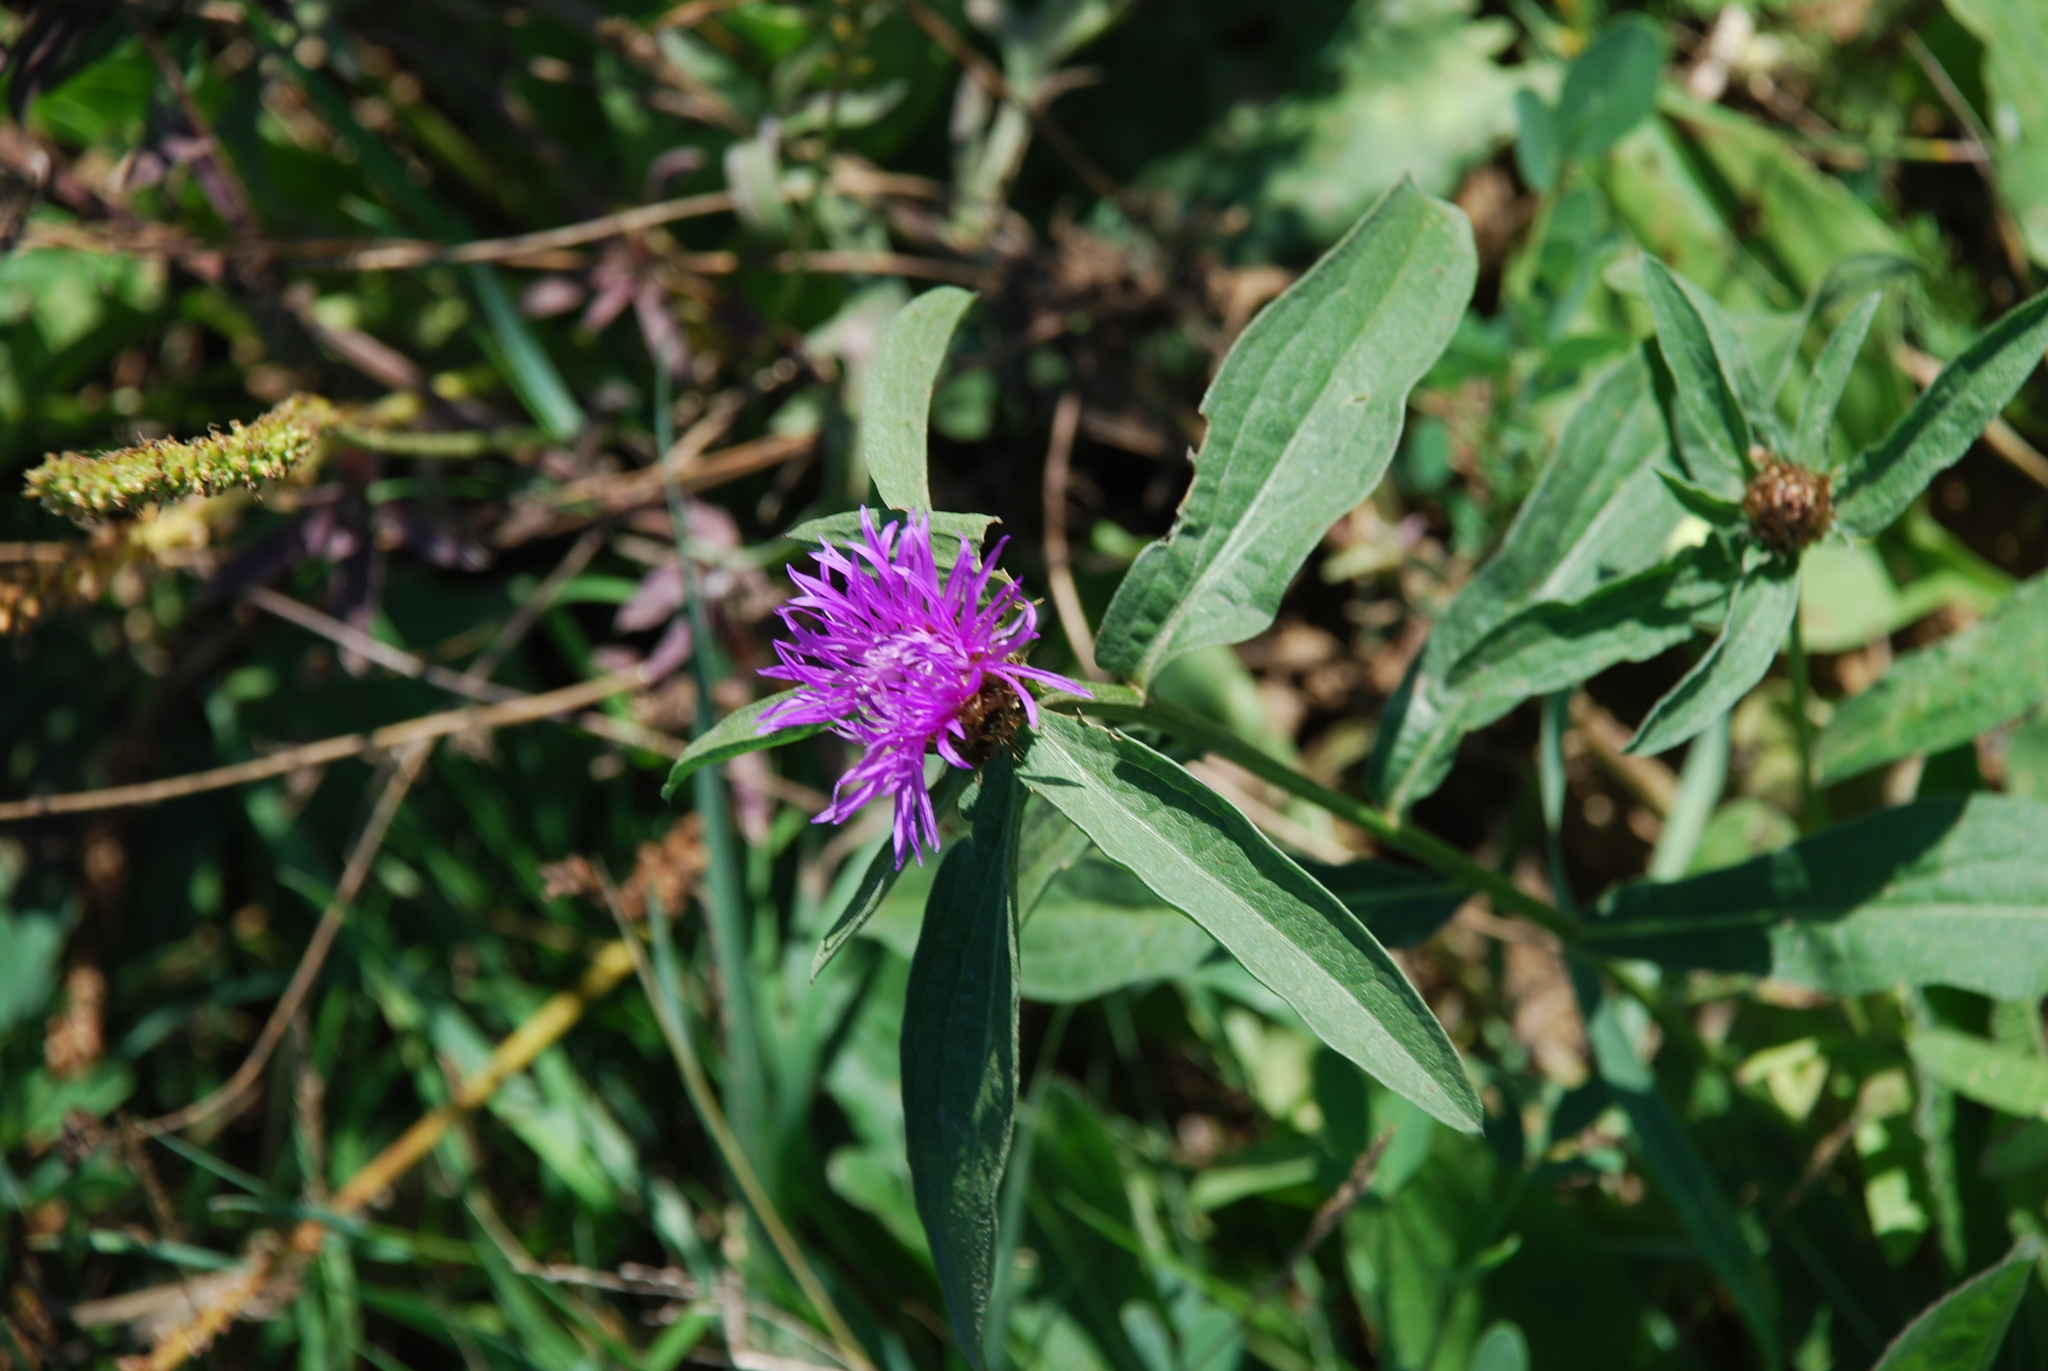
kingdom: Plantae
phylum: Tracheophyta
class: Magnoliopsida
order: Asterales
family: Asteraceae
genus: Centaurea
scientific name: Centaurea jacea
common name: Brown knapweed
